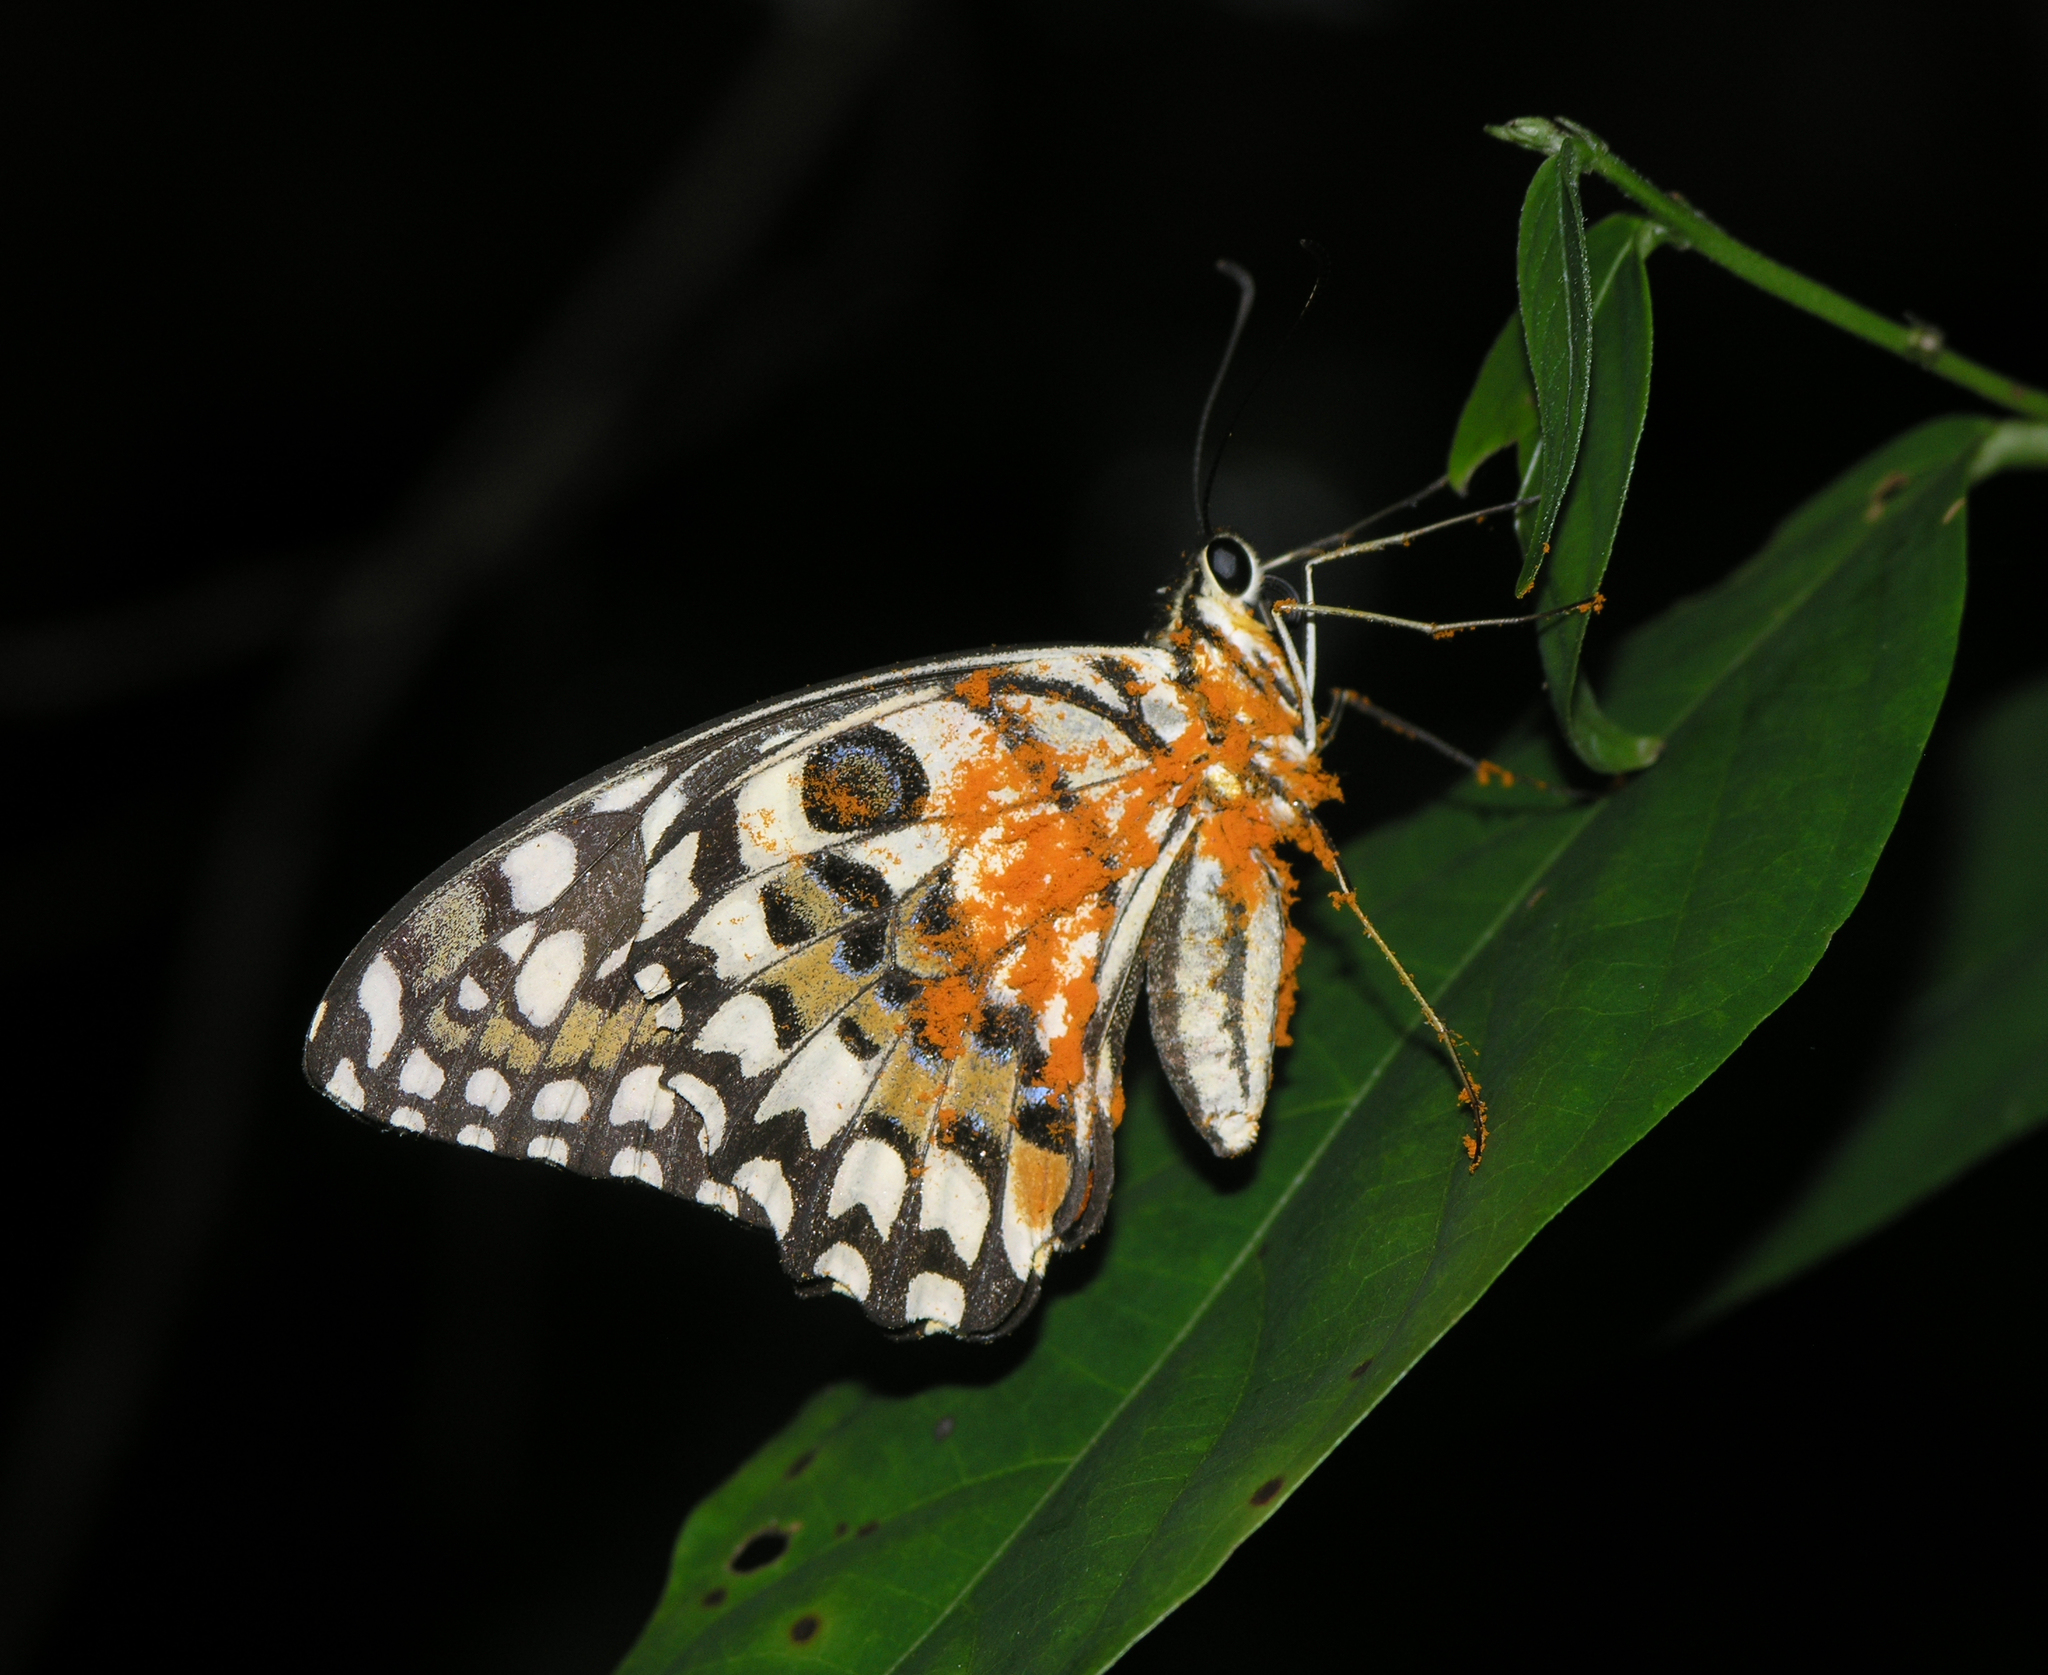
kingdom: Animalia
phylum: Arthropoda
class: Insecta
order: Lepidoptera
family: Papilionidae
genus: Papilio
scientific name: Papilio demoleus
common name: Lime butterfly
